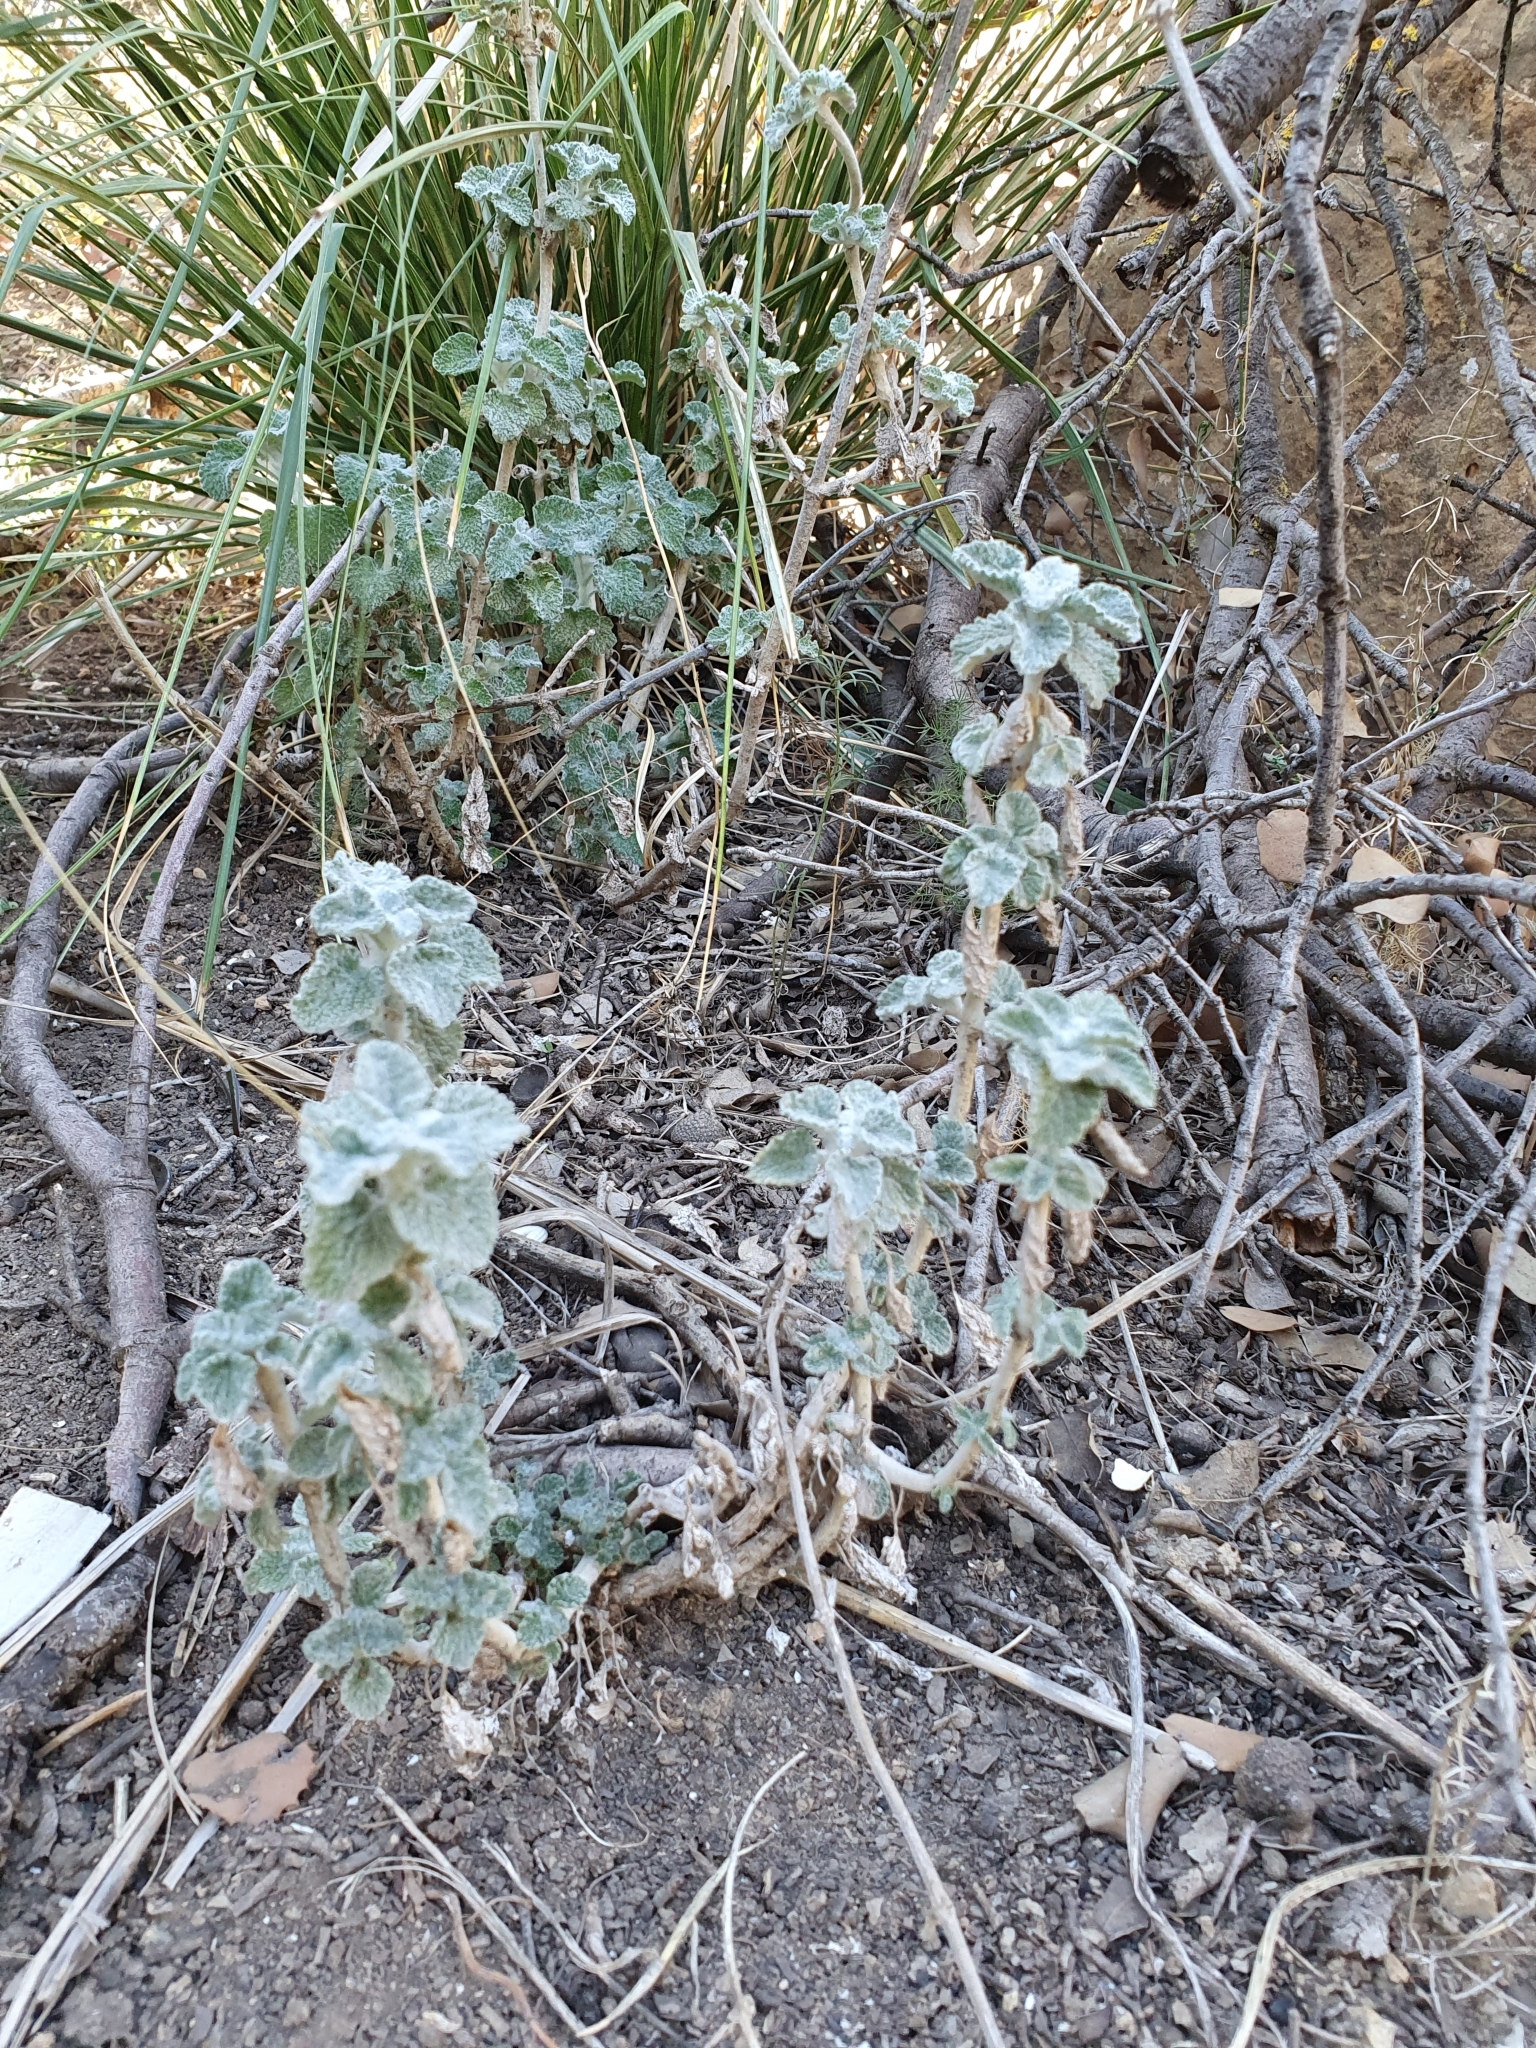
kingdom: Plantae
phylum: Tracheophyta
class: Magnoliopsida
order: Lamiales
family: Lamiaceae
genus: Marrubium
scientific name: Marrubium vulgare
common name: Horehound
